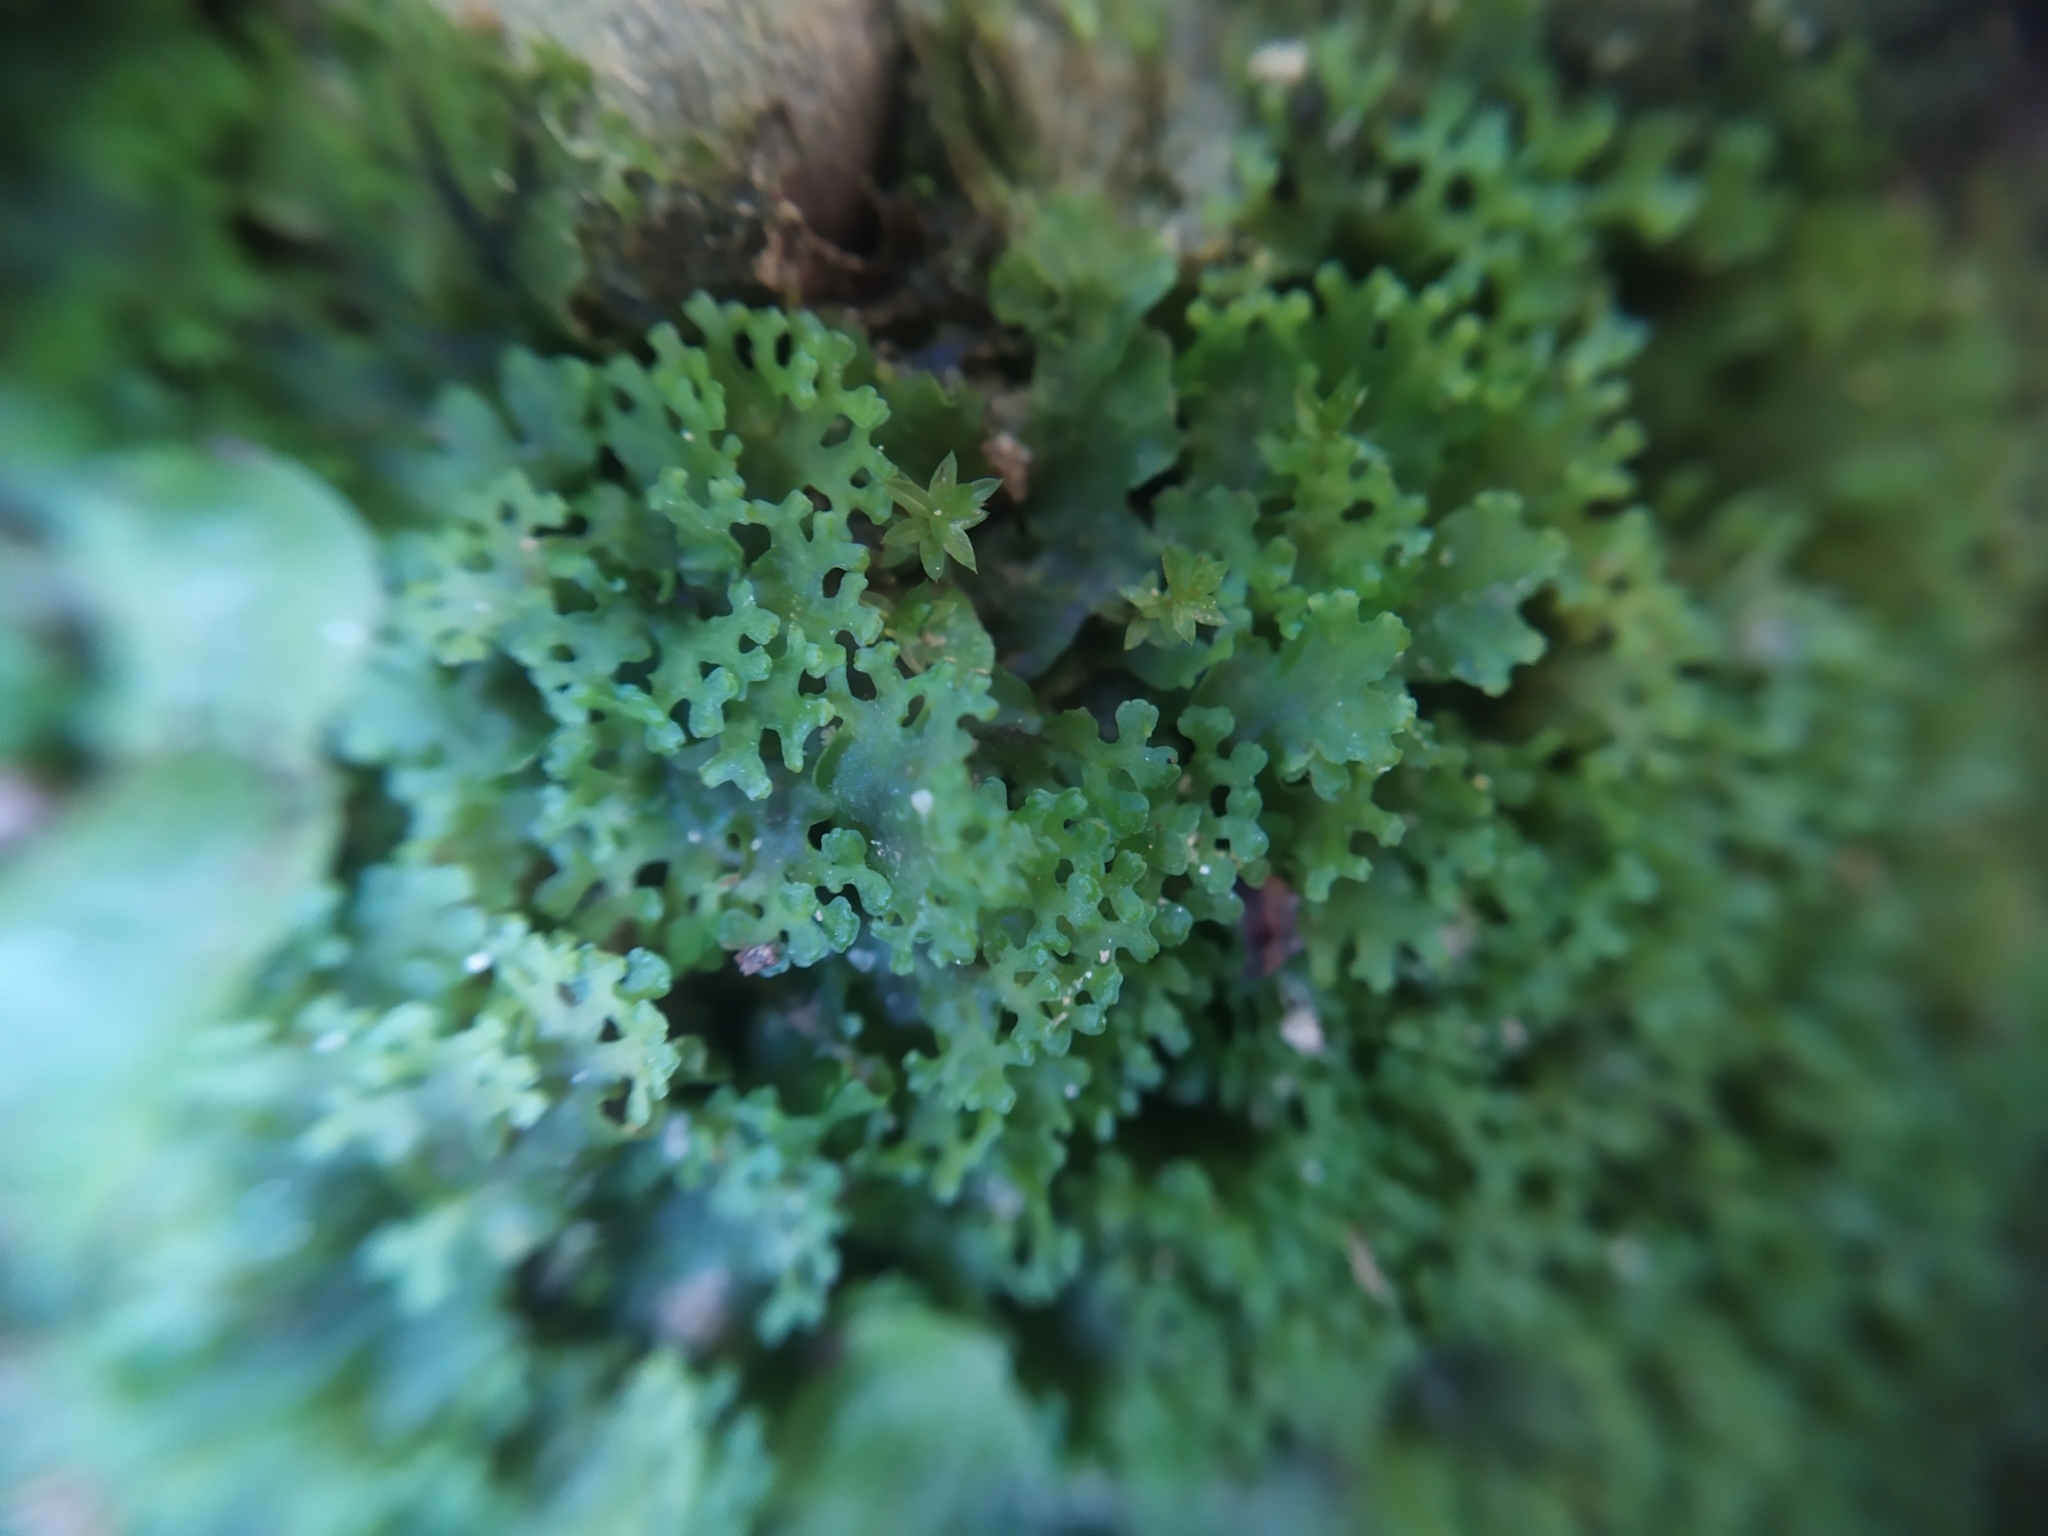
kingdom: Plantae
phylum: Marchantiophyta
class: Jungermanniopsida
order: Pelliales
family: Pelliaceae
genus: Apopellia
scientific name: Apopellia endiviifolia
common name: Endive pellia
